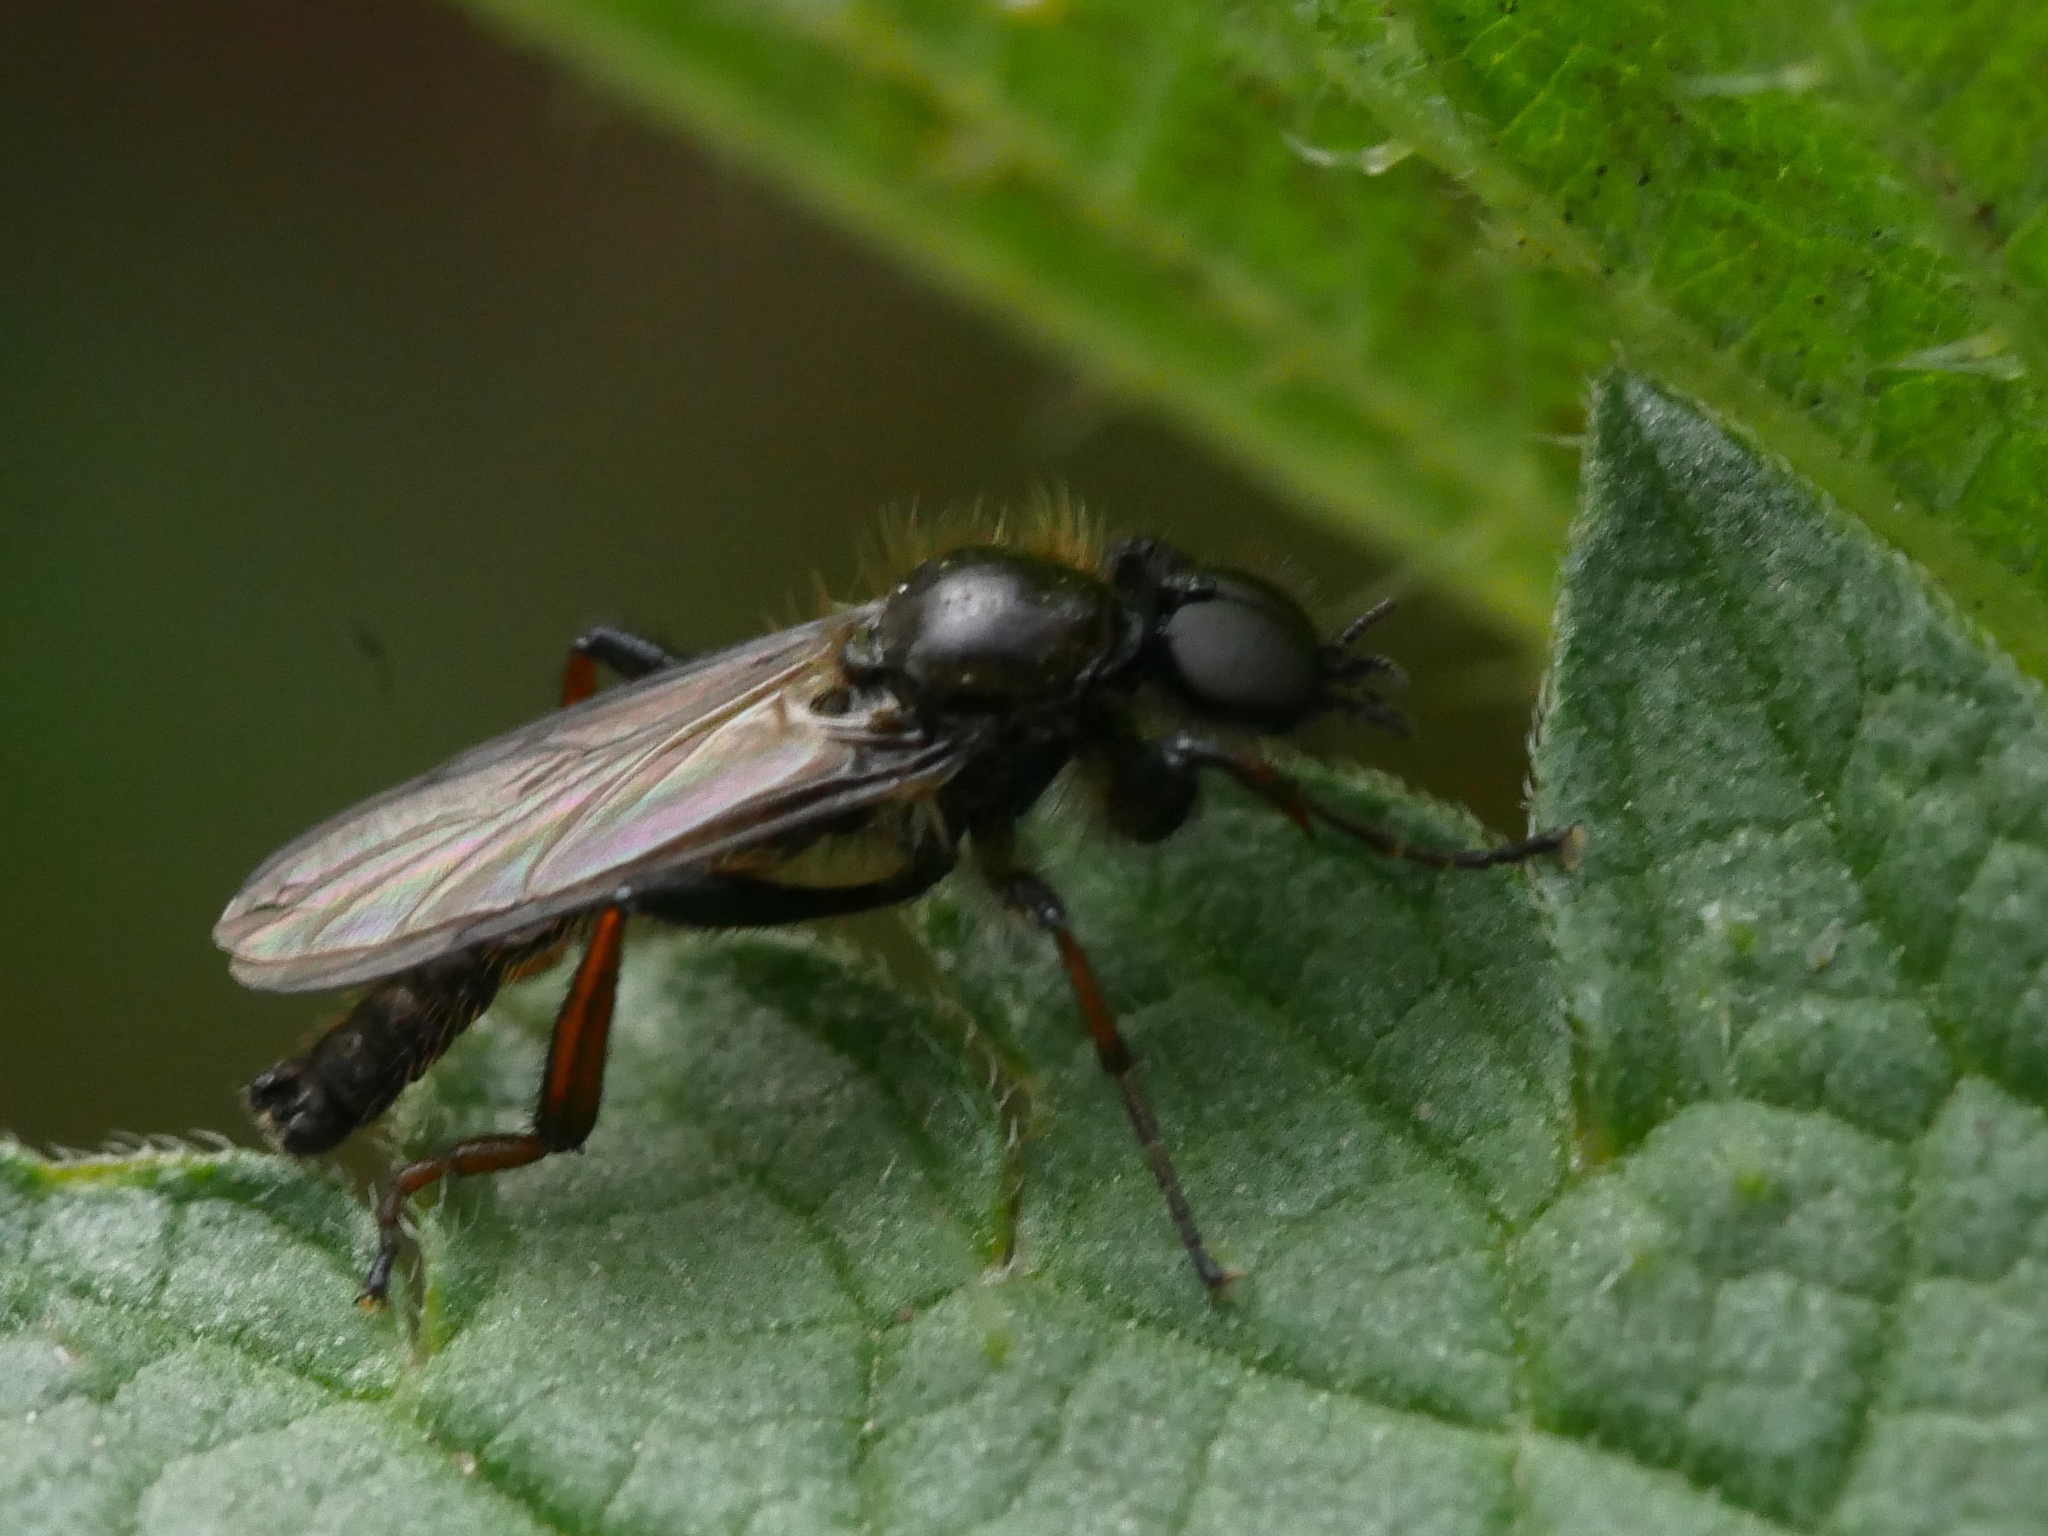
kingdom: Animalia
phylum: Arthropoda
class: Insecta
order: Diptera
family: Bibionidae
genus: Bibio
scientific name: Bibio marci
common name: St marks fly
